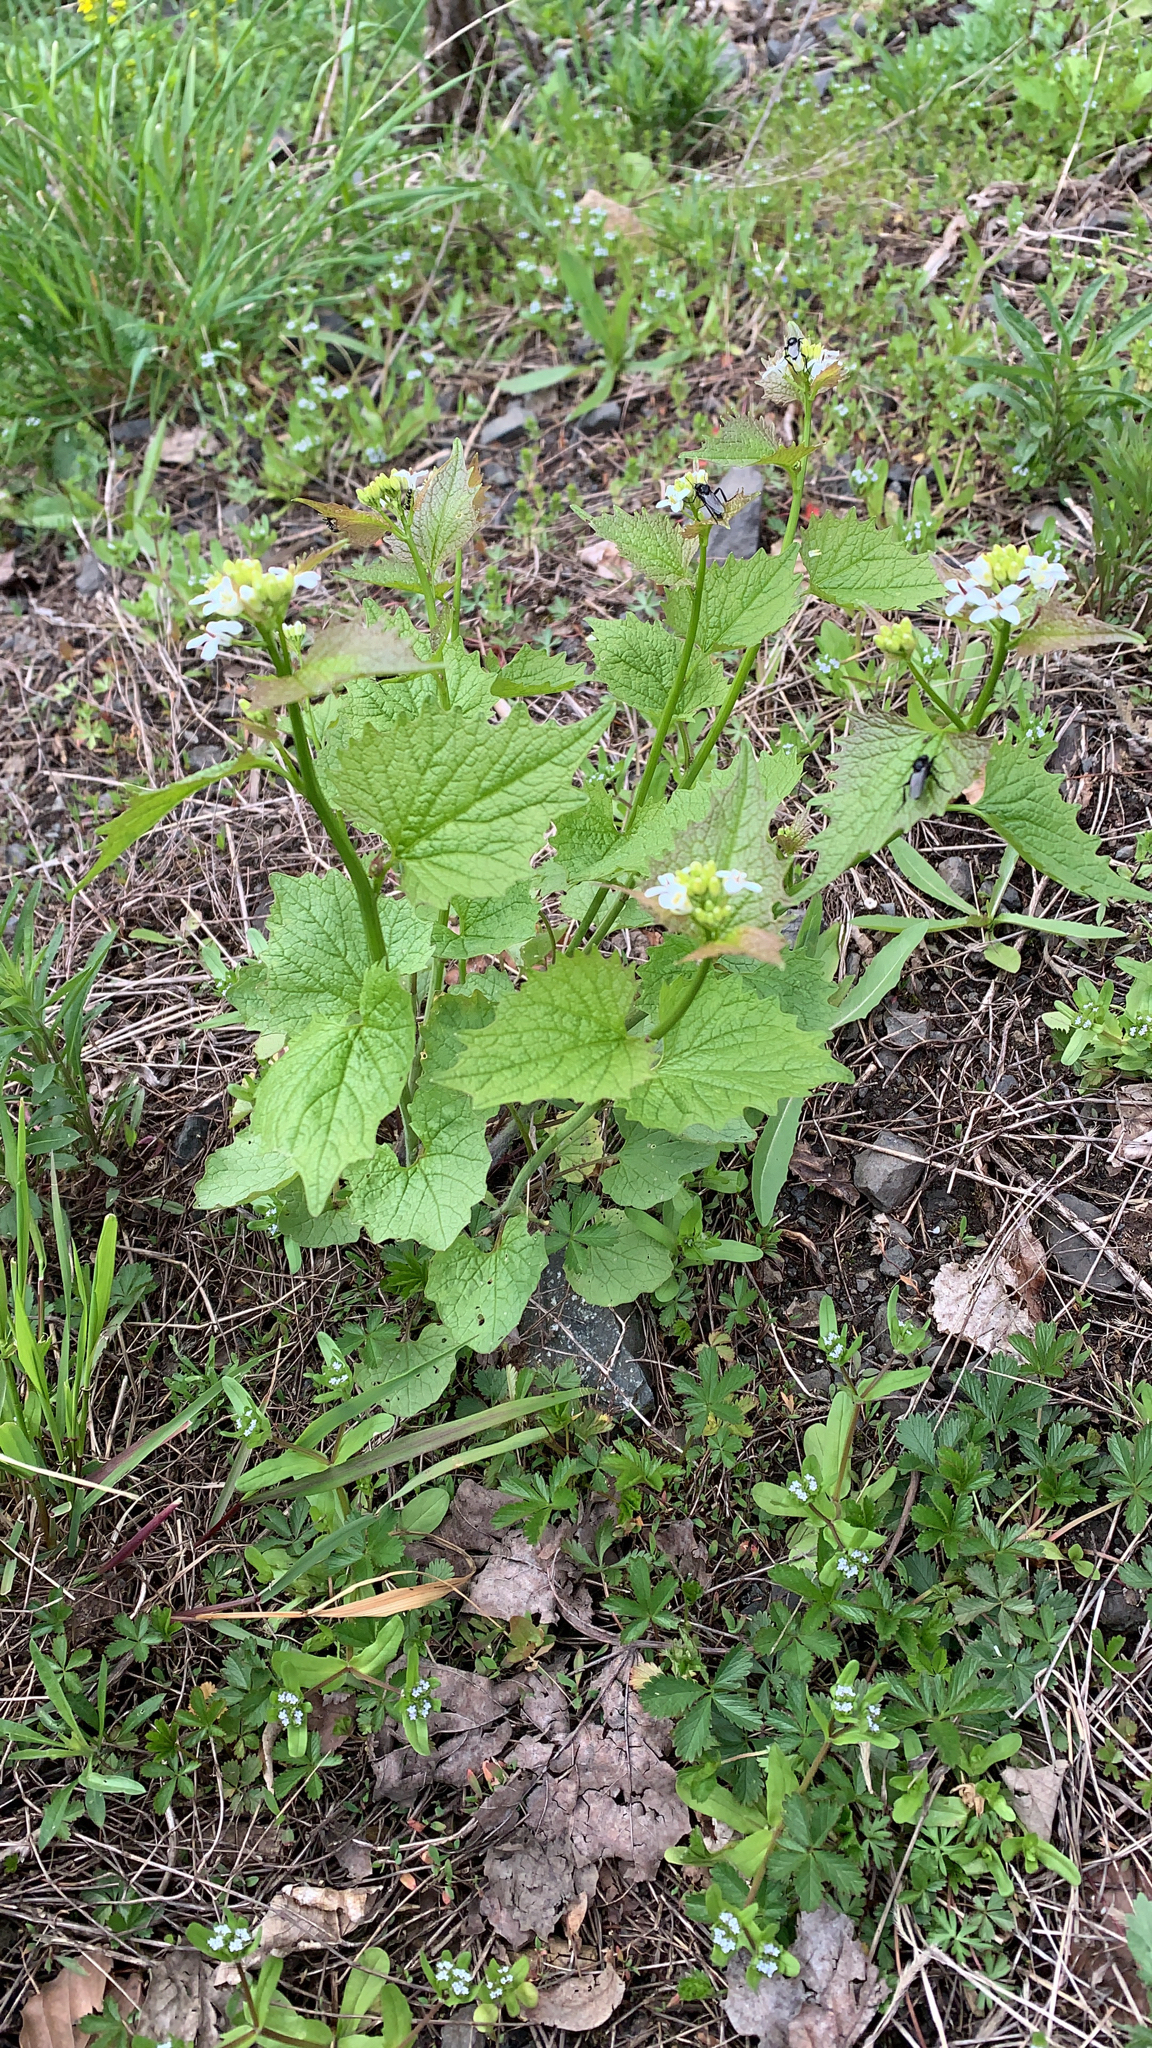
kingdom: Plantae
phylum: Tracheophyta
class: Magnoliopsida
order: Brassicales
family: Brassicaceae
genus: Alliaria
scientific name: Alliaria petiolata
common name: Garlic mustard
